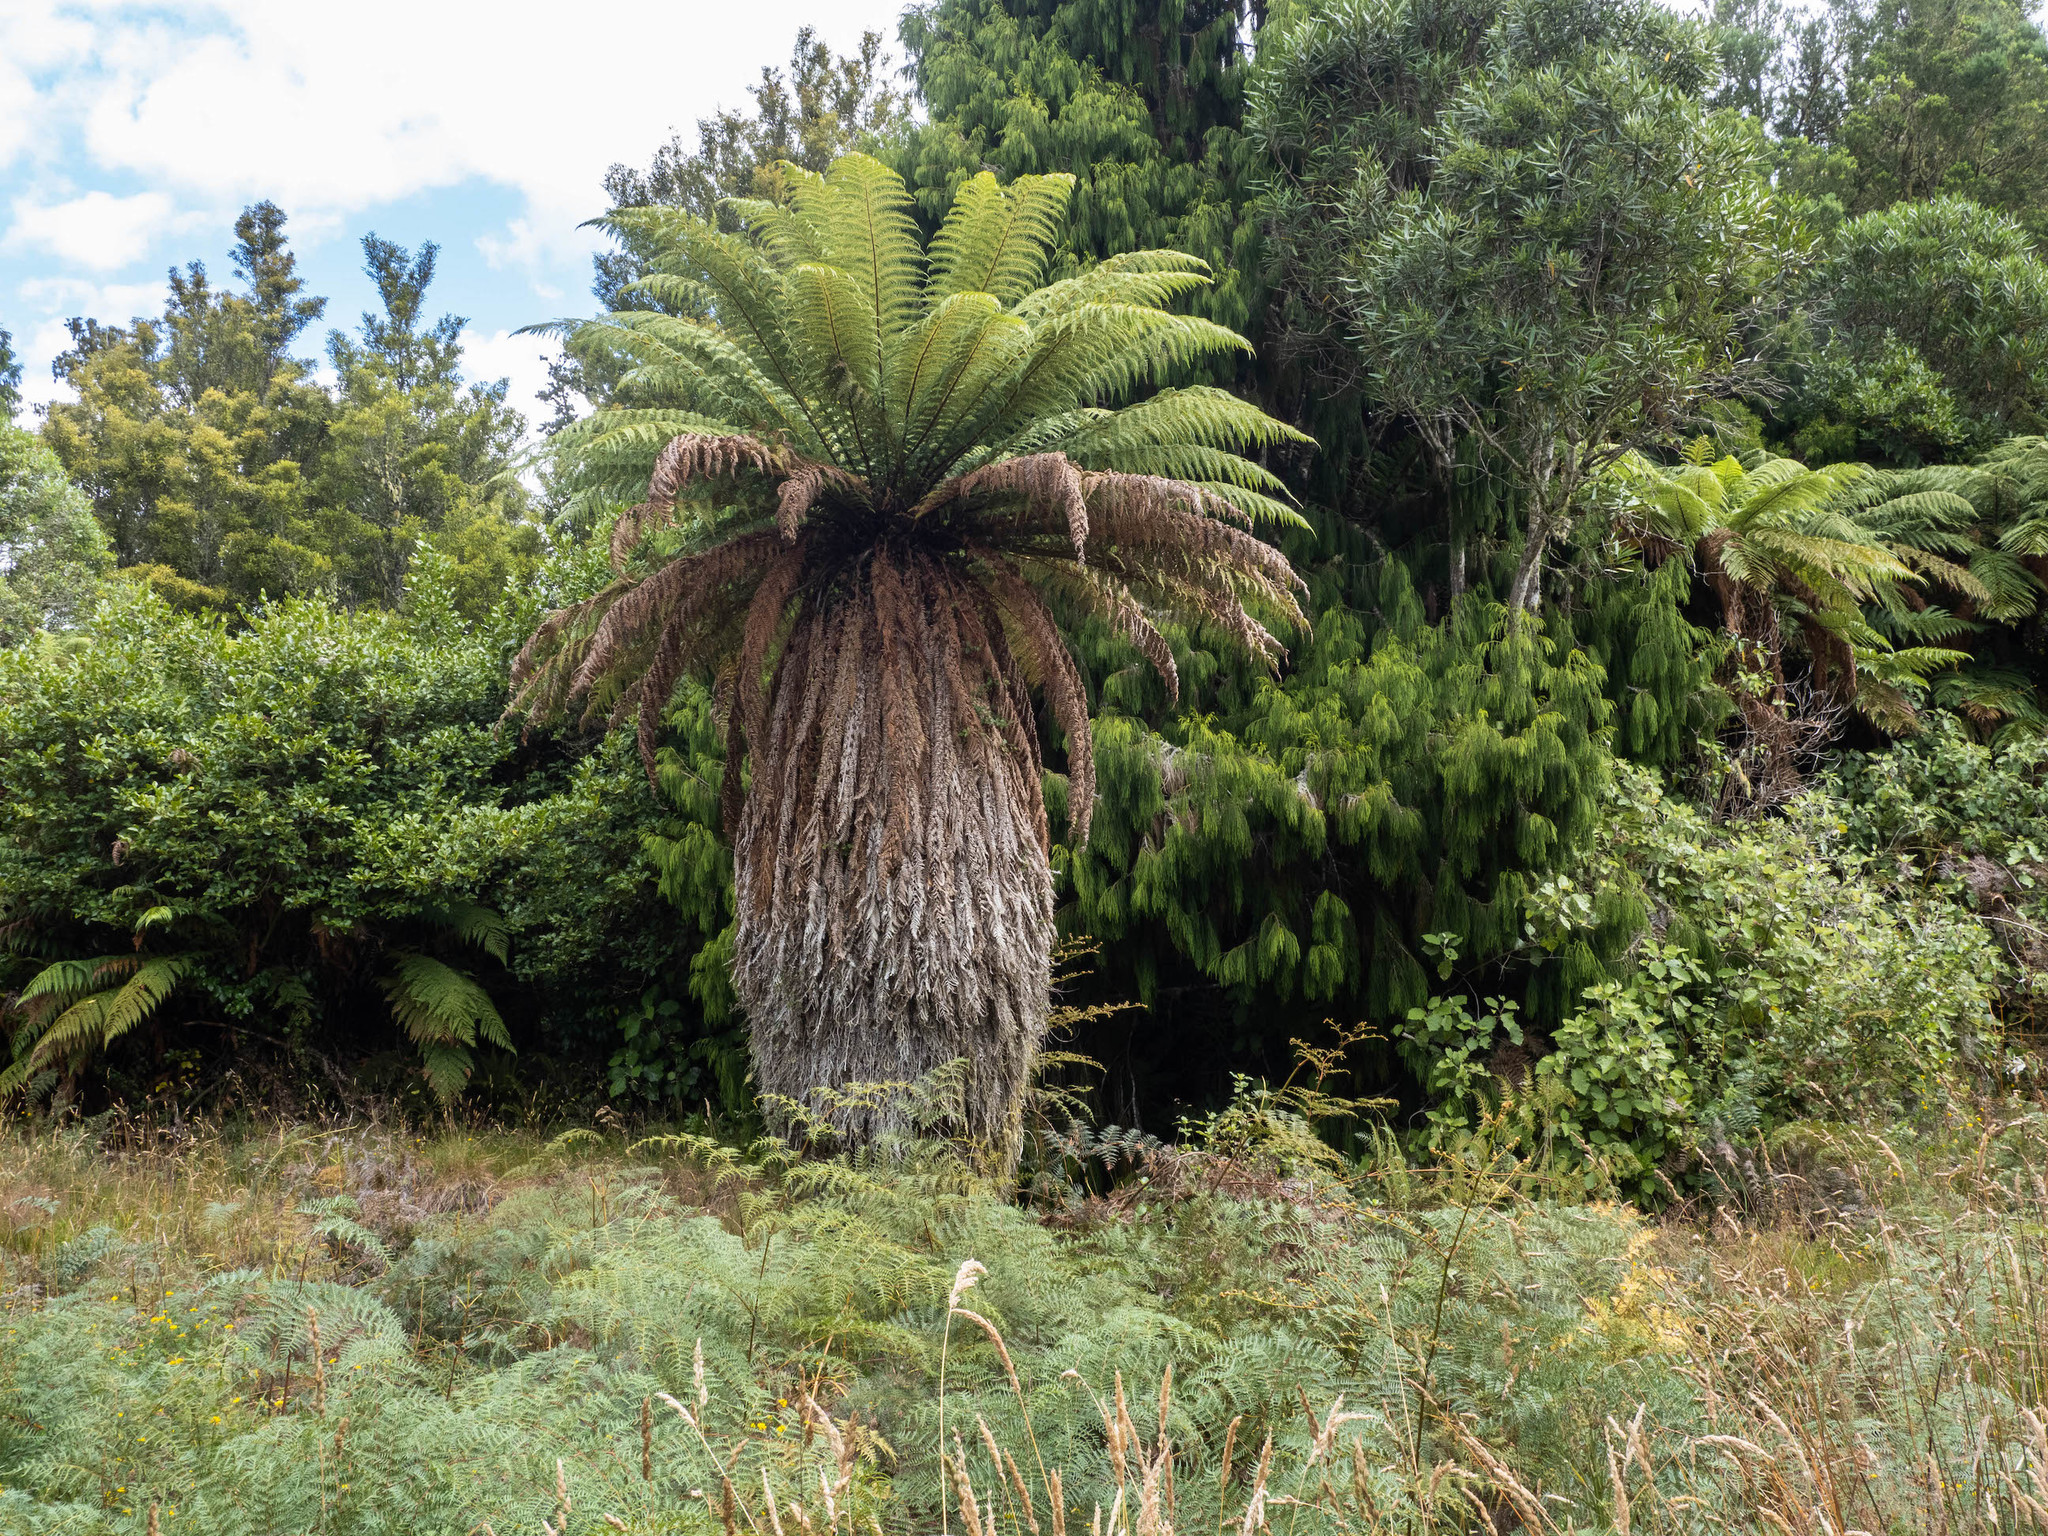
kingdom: Plantae
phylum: Tracheophyta
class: Polypodiopsida
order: Cyatheales
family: Dicksoniaceae
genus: Dicksonia
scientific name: Dicksonia fibrosa
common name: Golden tree fern
